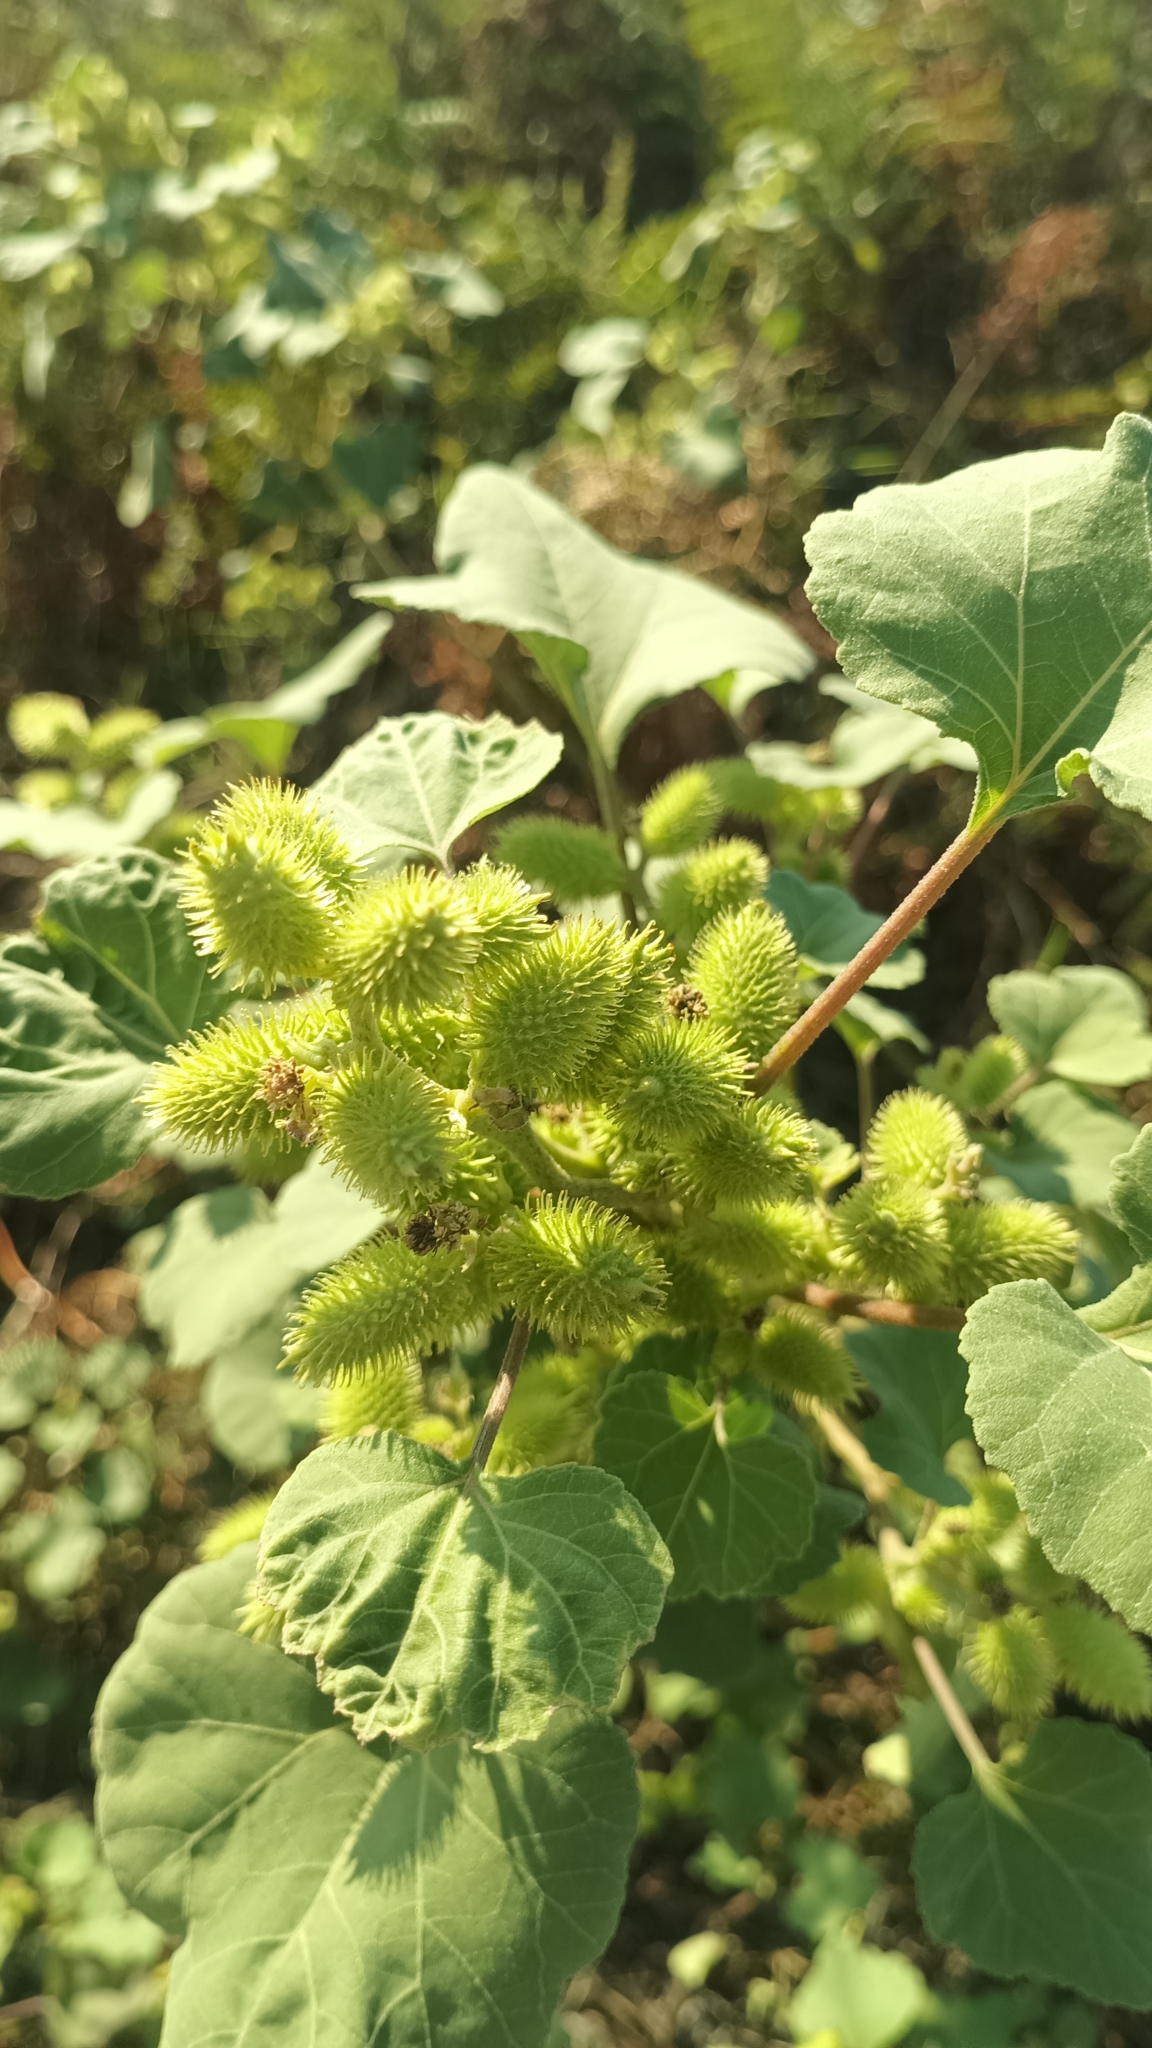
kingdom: Plantae
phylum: Tracheophyta
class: Magnoliopsida
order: Asterales
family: Asteraceae
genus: Xanthium
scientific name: Xanthium orientale
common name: Californian burr
